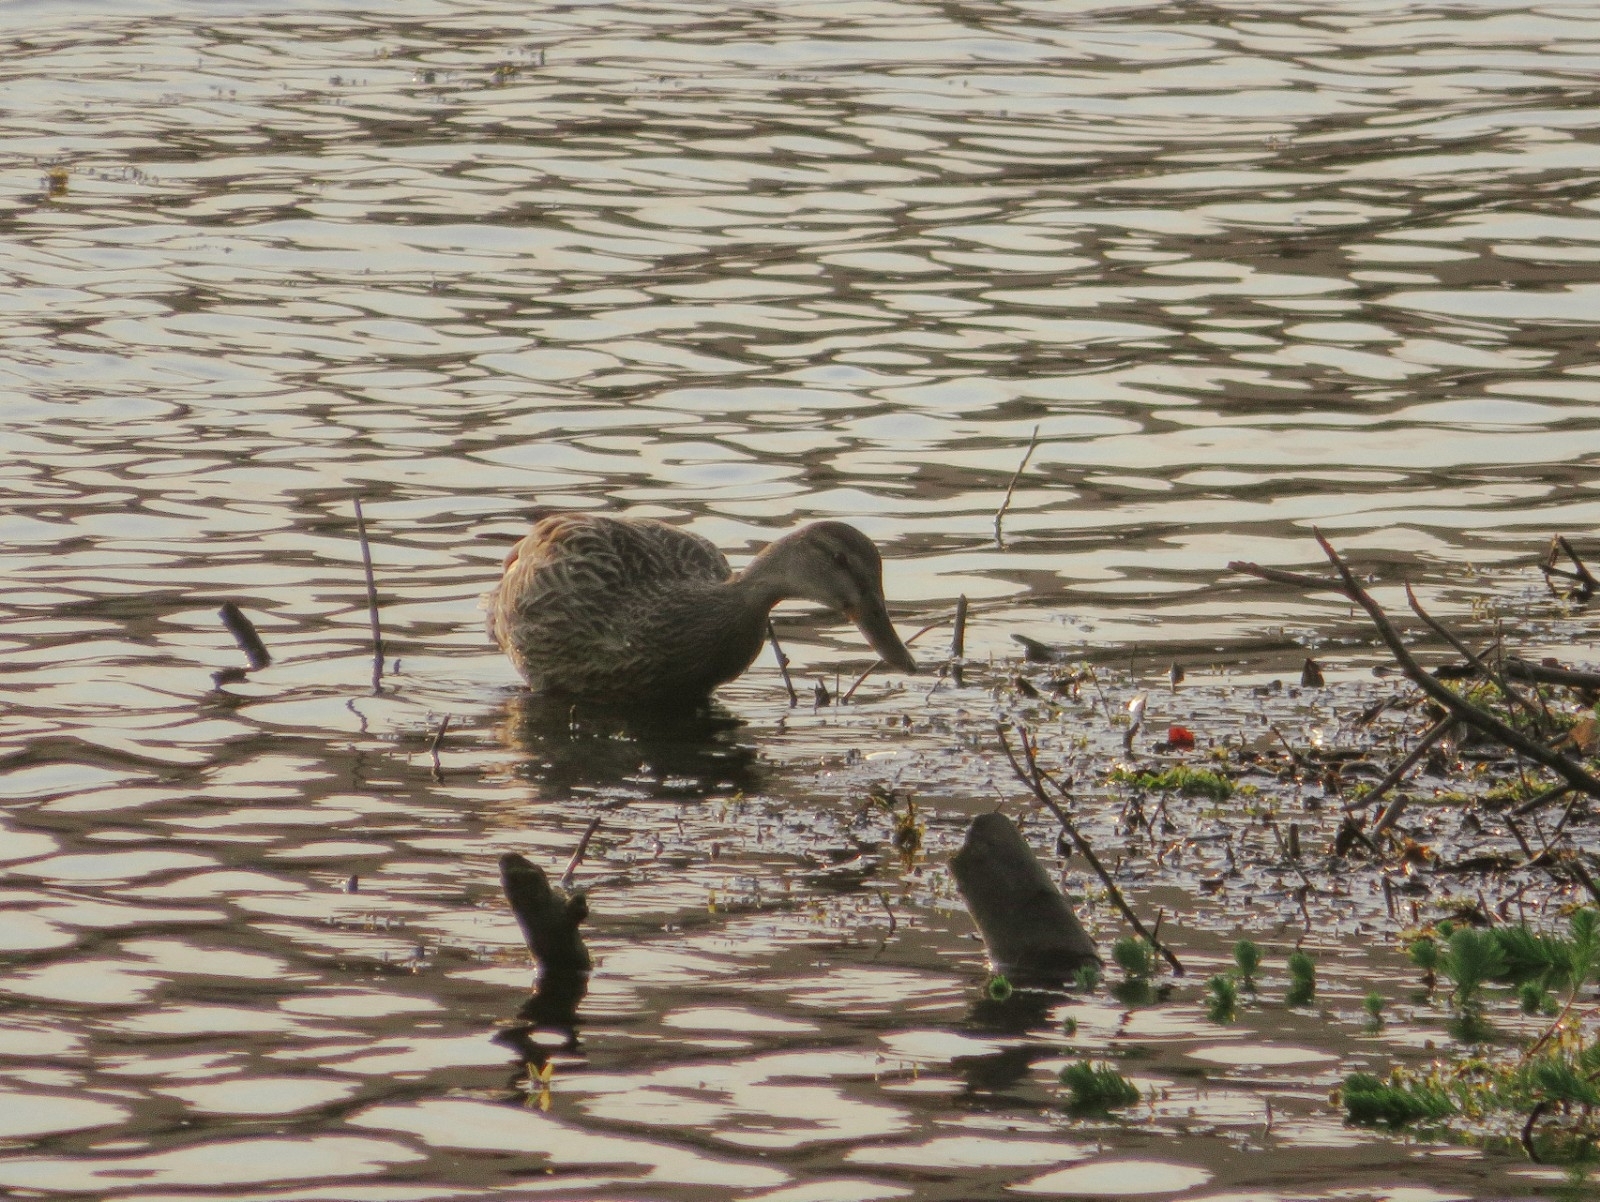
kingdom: Animalia
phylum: Chordata
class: Aves
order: Anseriformes
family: Anatidae
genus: Anas
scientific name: Anas platyrhynchos
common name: Mallard
